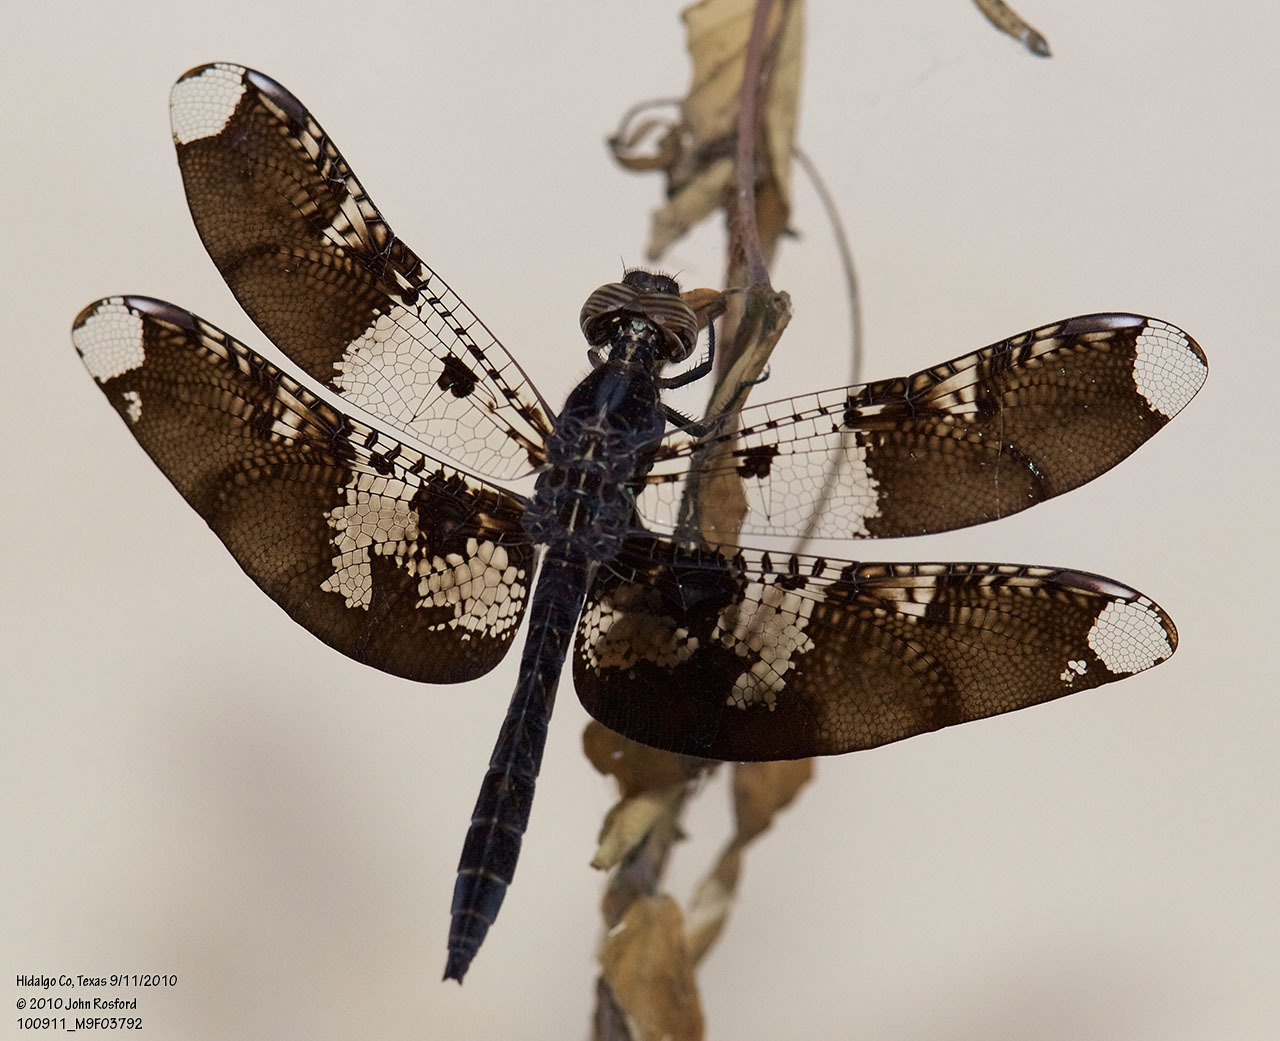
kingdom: Animalia
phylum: Arthropoda
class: Insecta
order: Odonata
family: Libellulidae
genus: Pseudoleon
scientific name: Pseudoleon superbus
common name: Filigree skimmer
